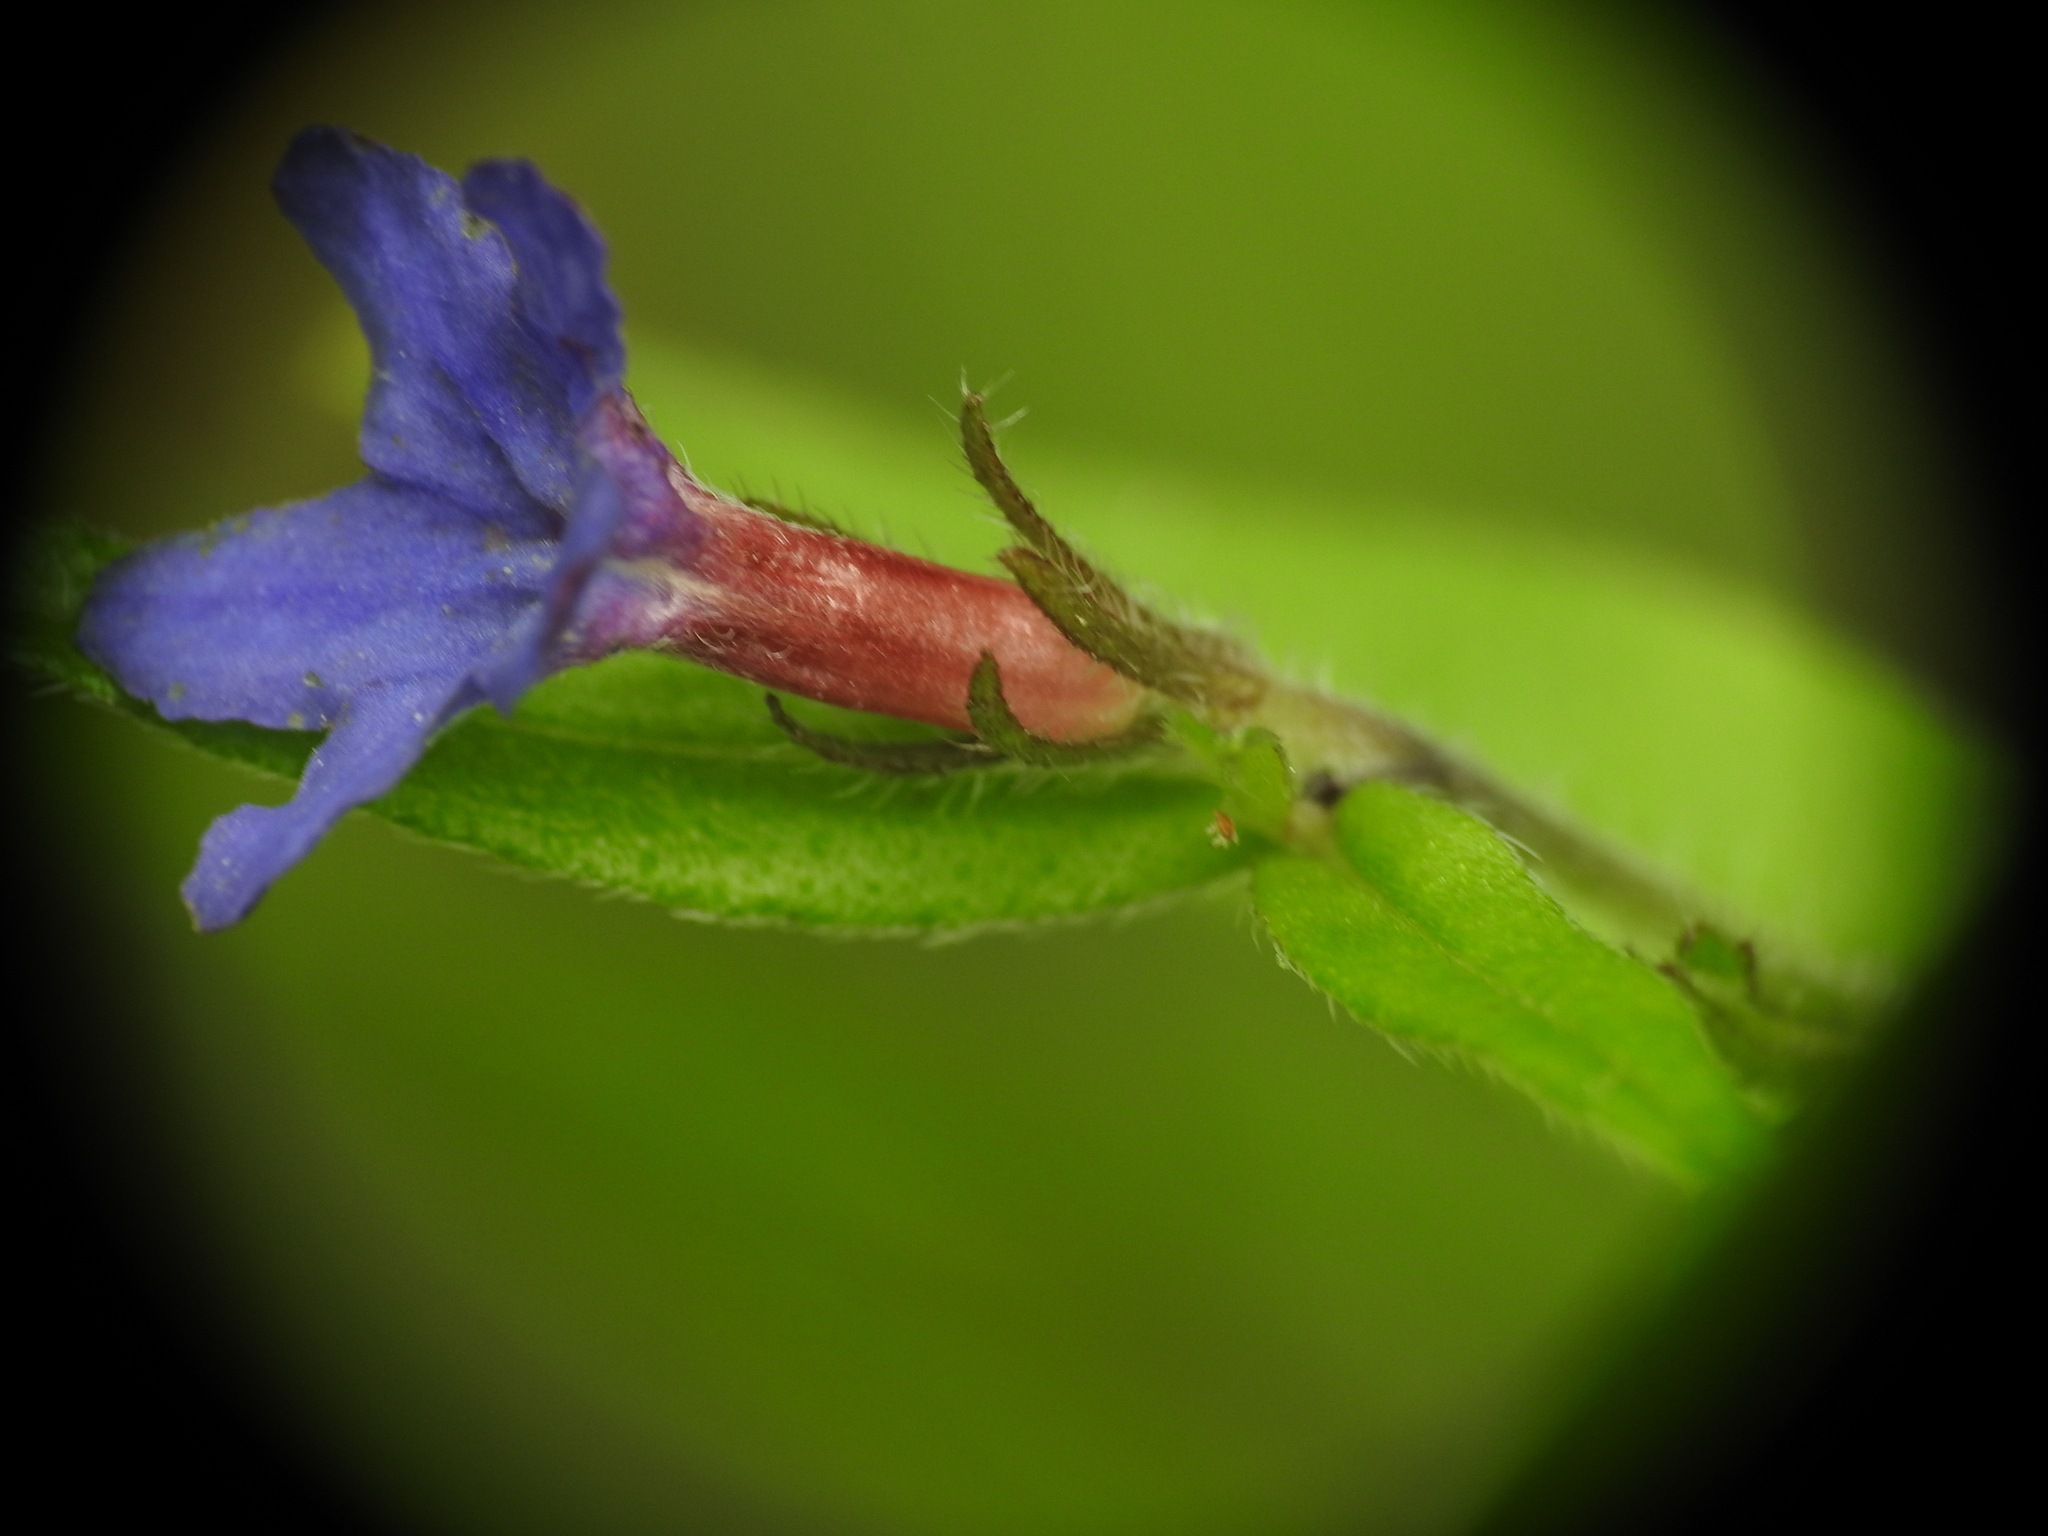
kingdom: Plantae
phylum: Tracheophyta
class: Magnoliopsida
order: Boraginales
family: Boraginaceae
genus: Aegonychon
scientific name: Aegonychon purpurocaeruleum
